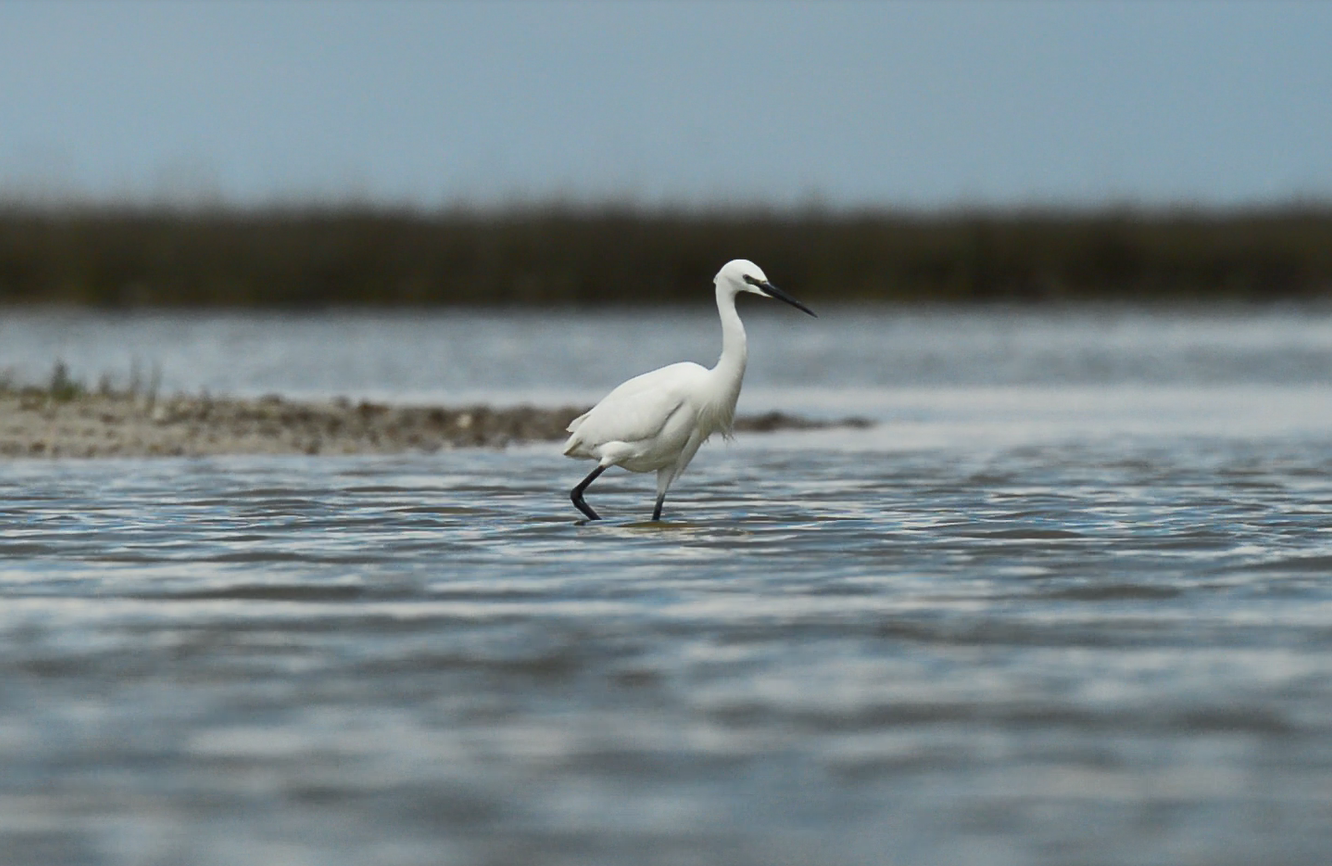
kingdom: Animalia
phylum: Chordata
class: Aves
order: Pelecaniformes
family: Ardeidae
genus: Egretta
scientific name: Egretta garzetta
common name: Little egret
